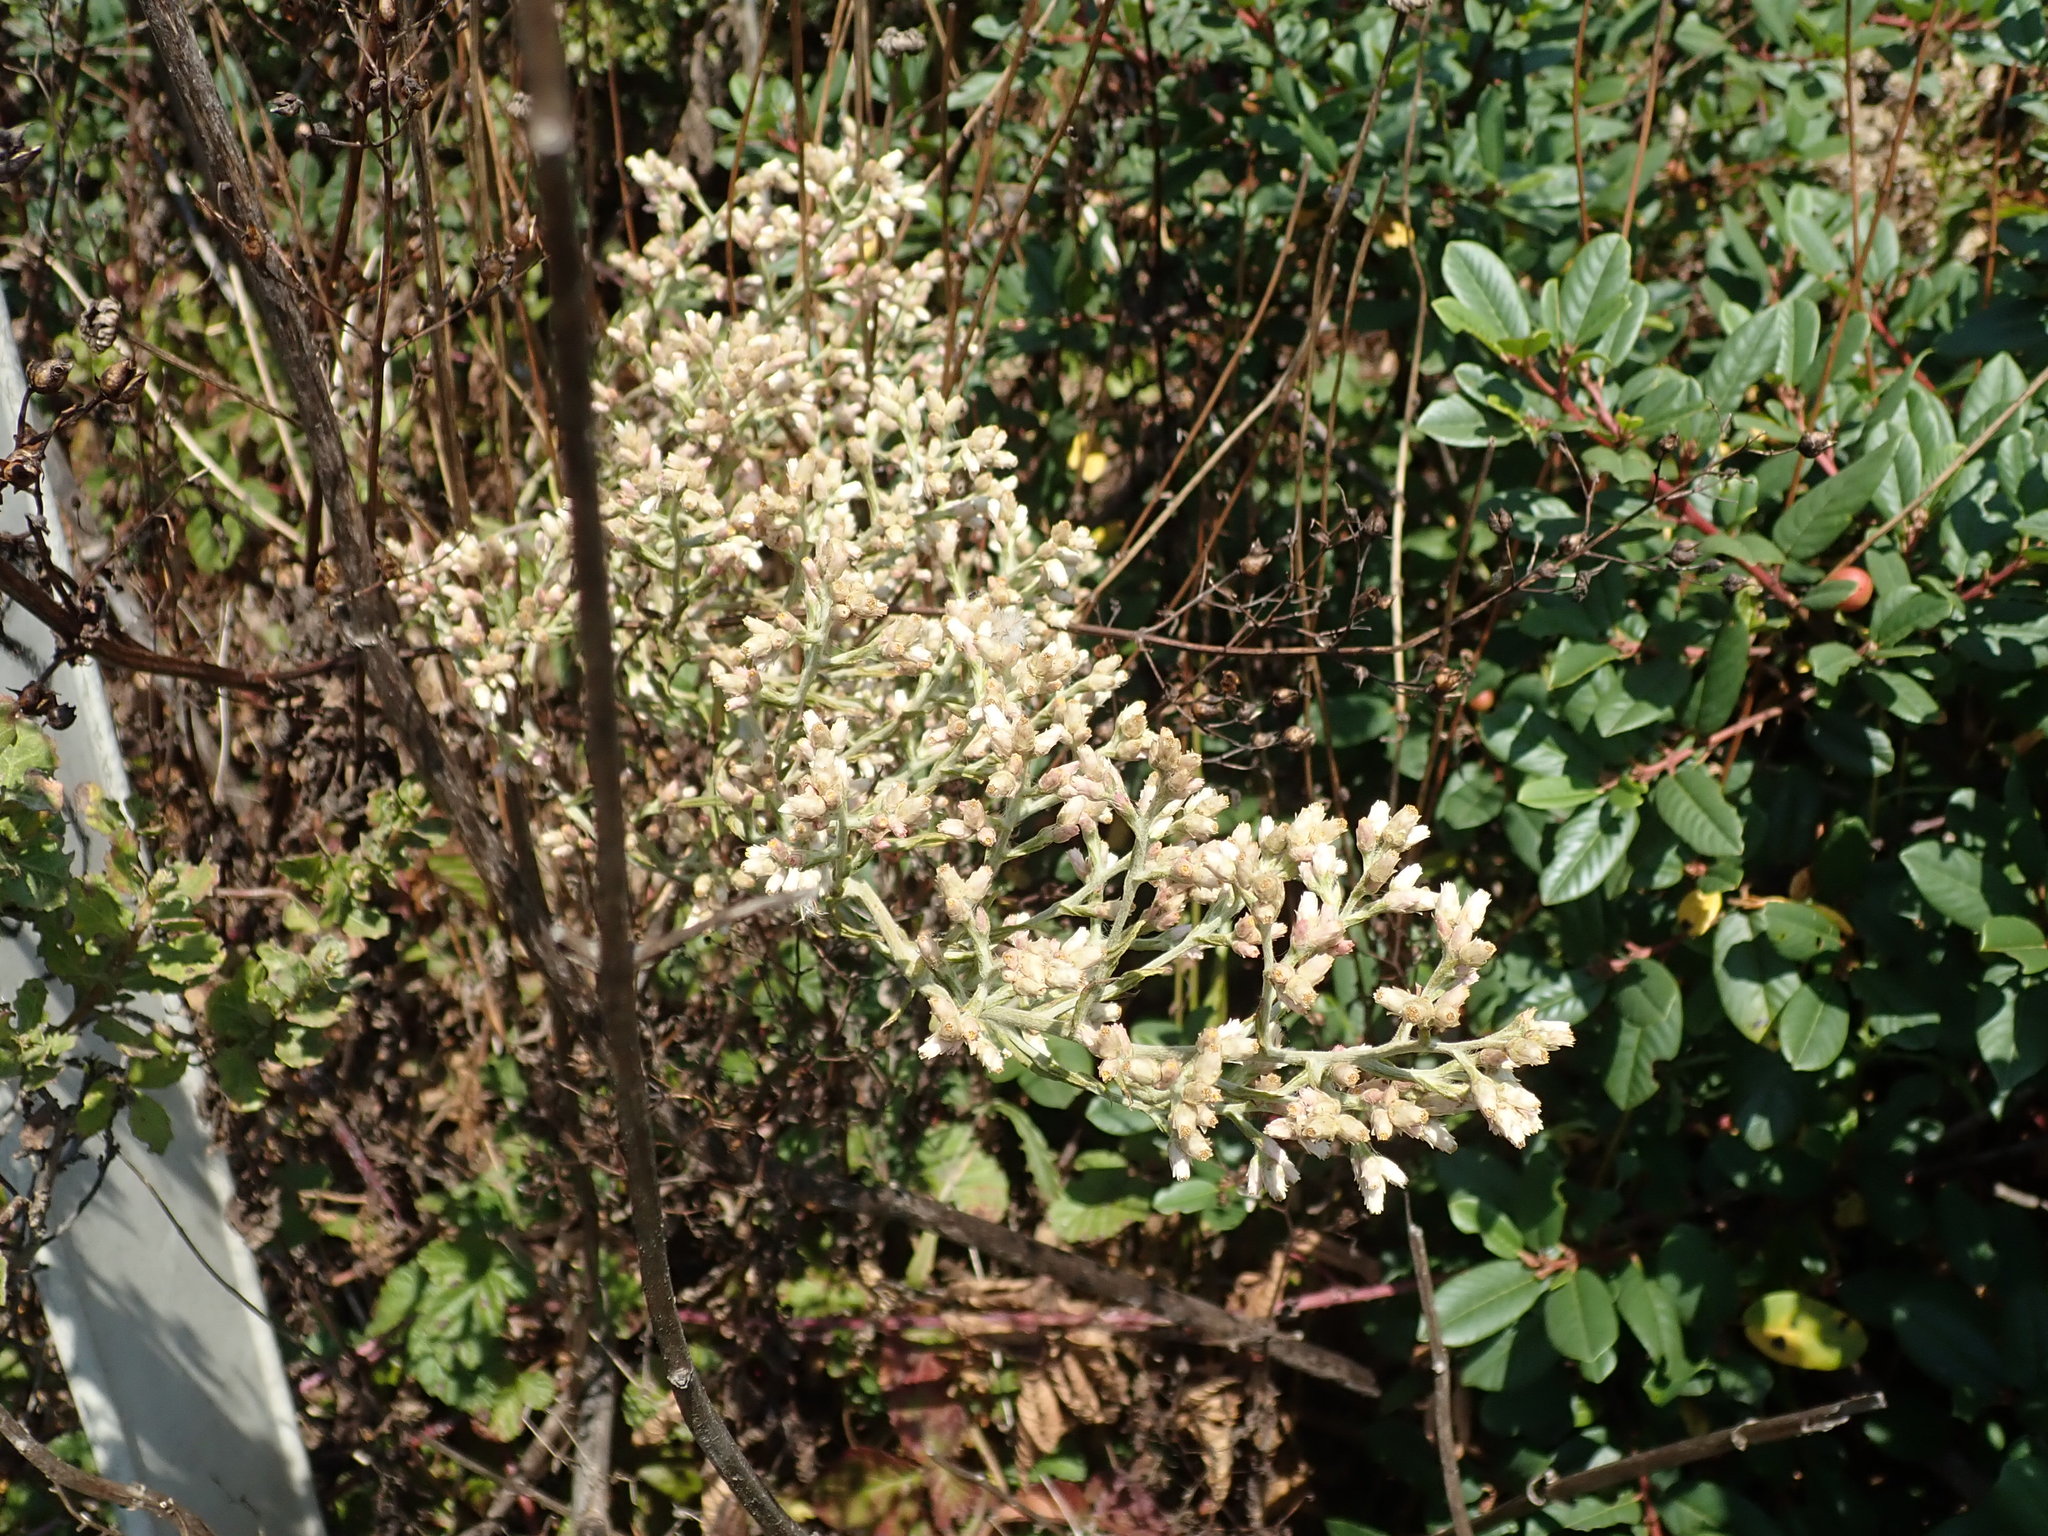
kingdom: Plantae
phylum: Tracheophyta
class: Magnoliopsida
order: Asterales
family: Asteraceae
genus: Pseudognaphalium
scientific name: Pseudognaphalium ramosissimum
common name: Pink rabbit-tobacco
